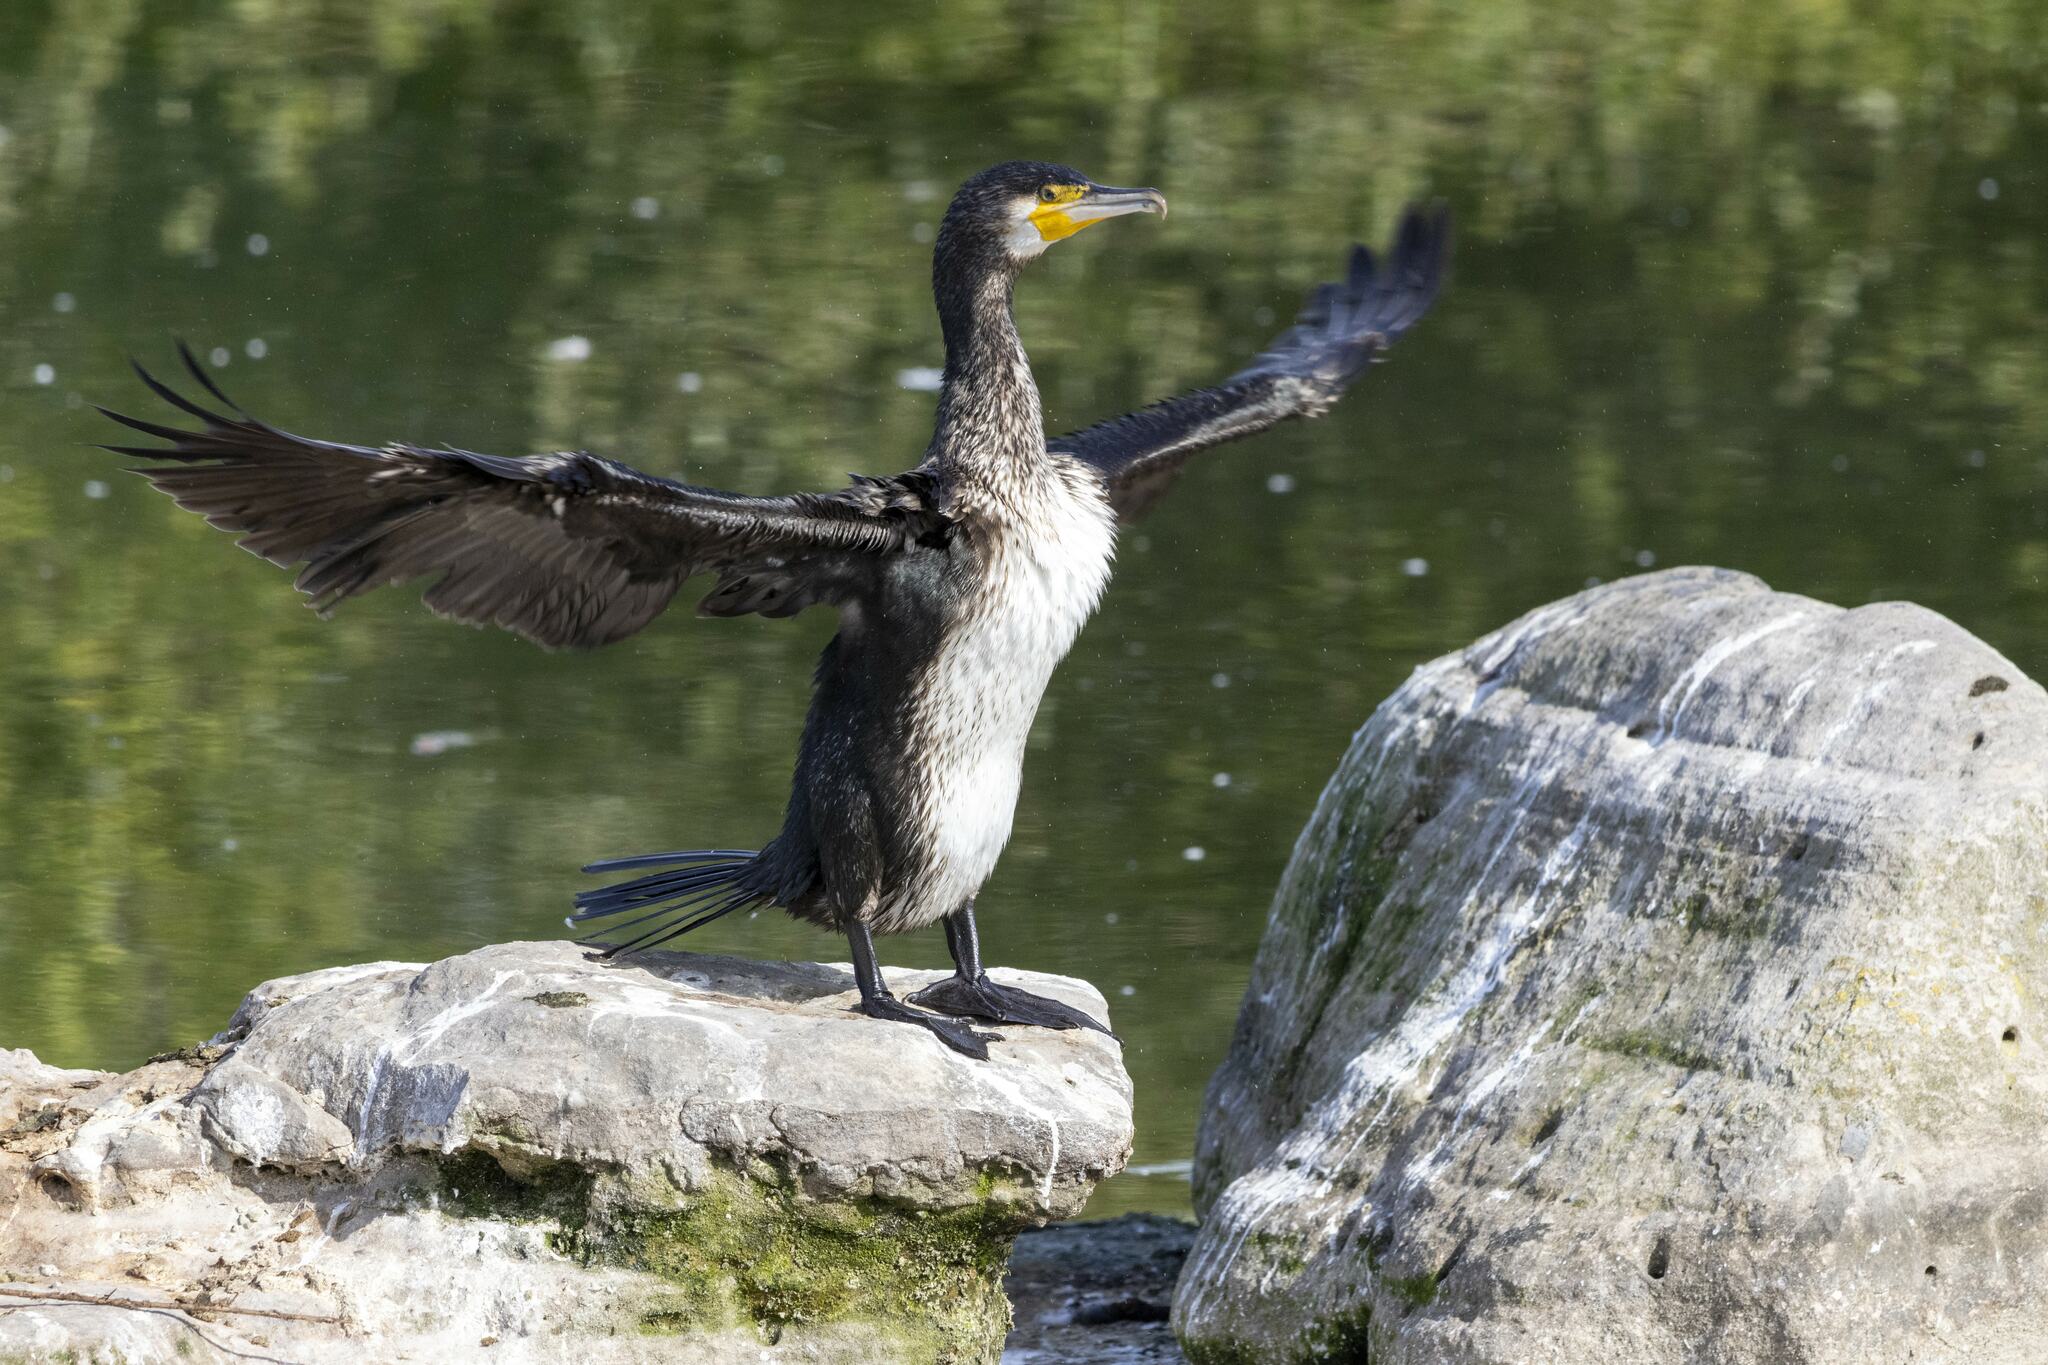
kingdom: Animalia
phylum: Chordata
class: Aves
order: Suliformes
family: Phalacrocoracidae
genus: Phalacrocorax
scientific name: Phalacrocorax carbo
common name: Great cormorant
